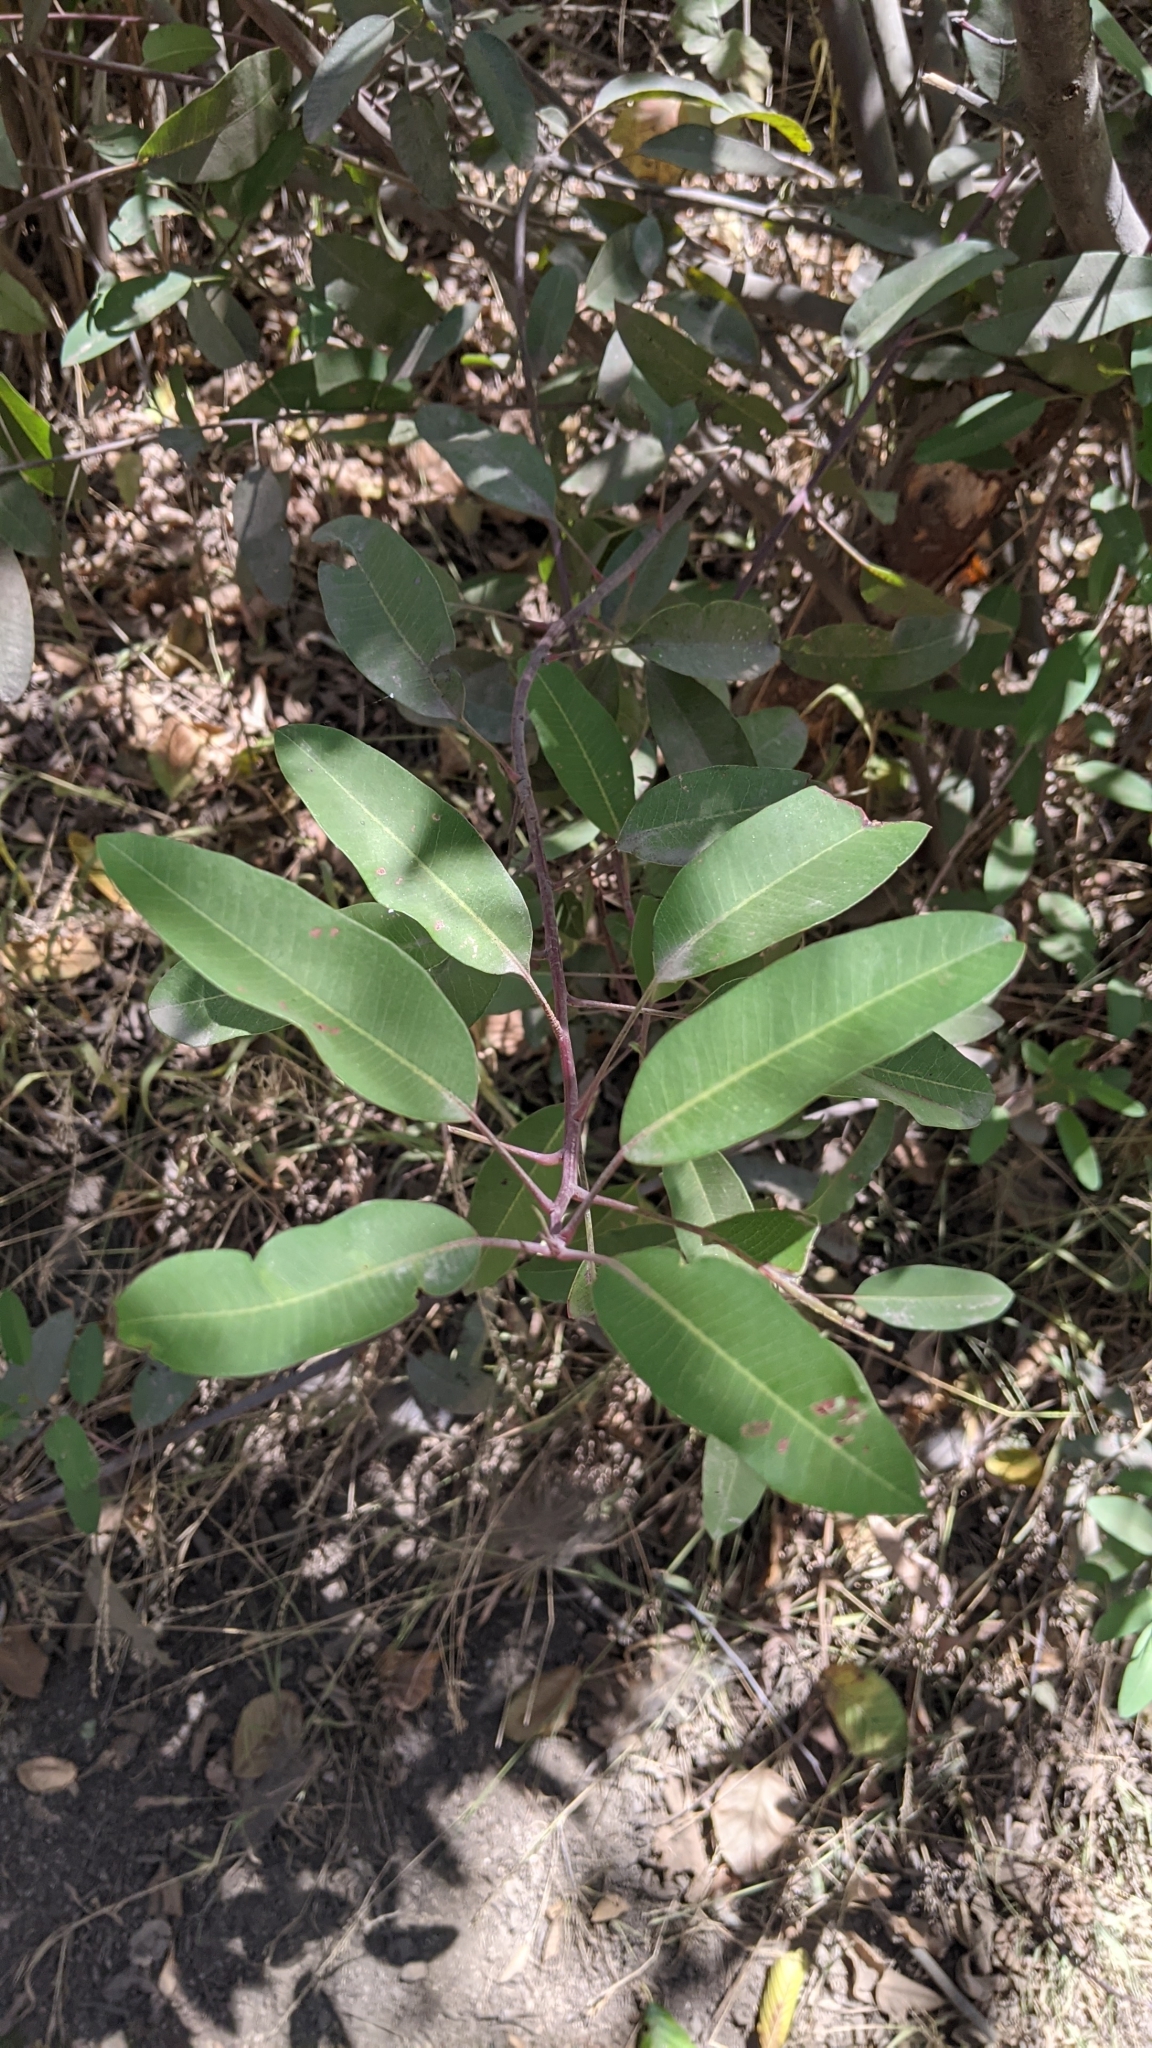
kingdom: Plantae
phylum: Tracheophyta
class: Magnoliopsida
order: Sapindales
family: Anacardiaceae
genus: Malosma
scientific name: Malosma laurina
